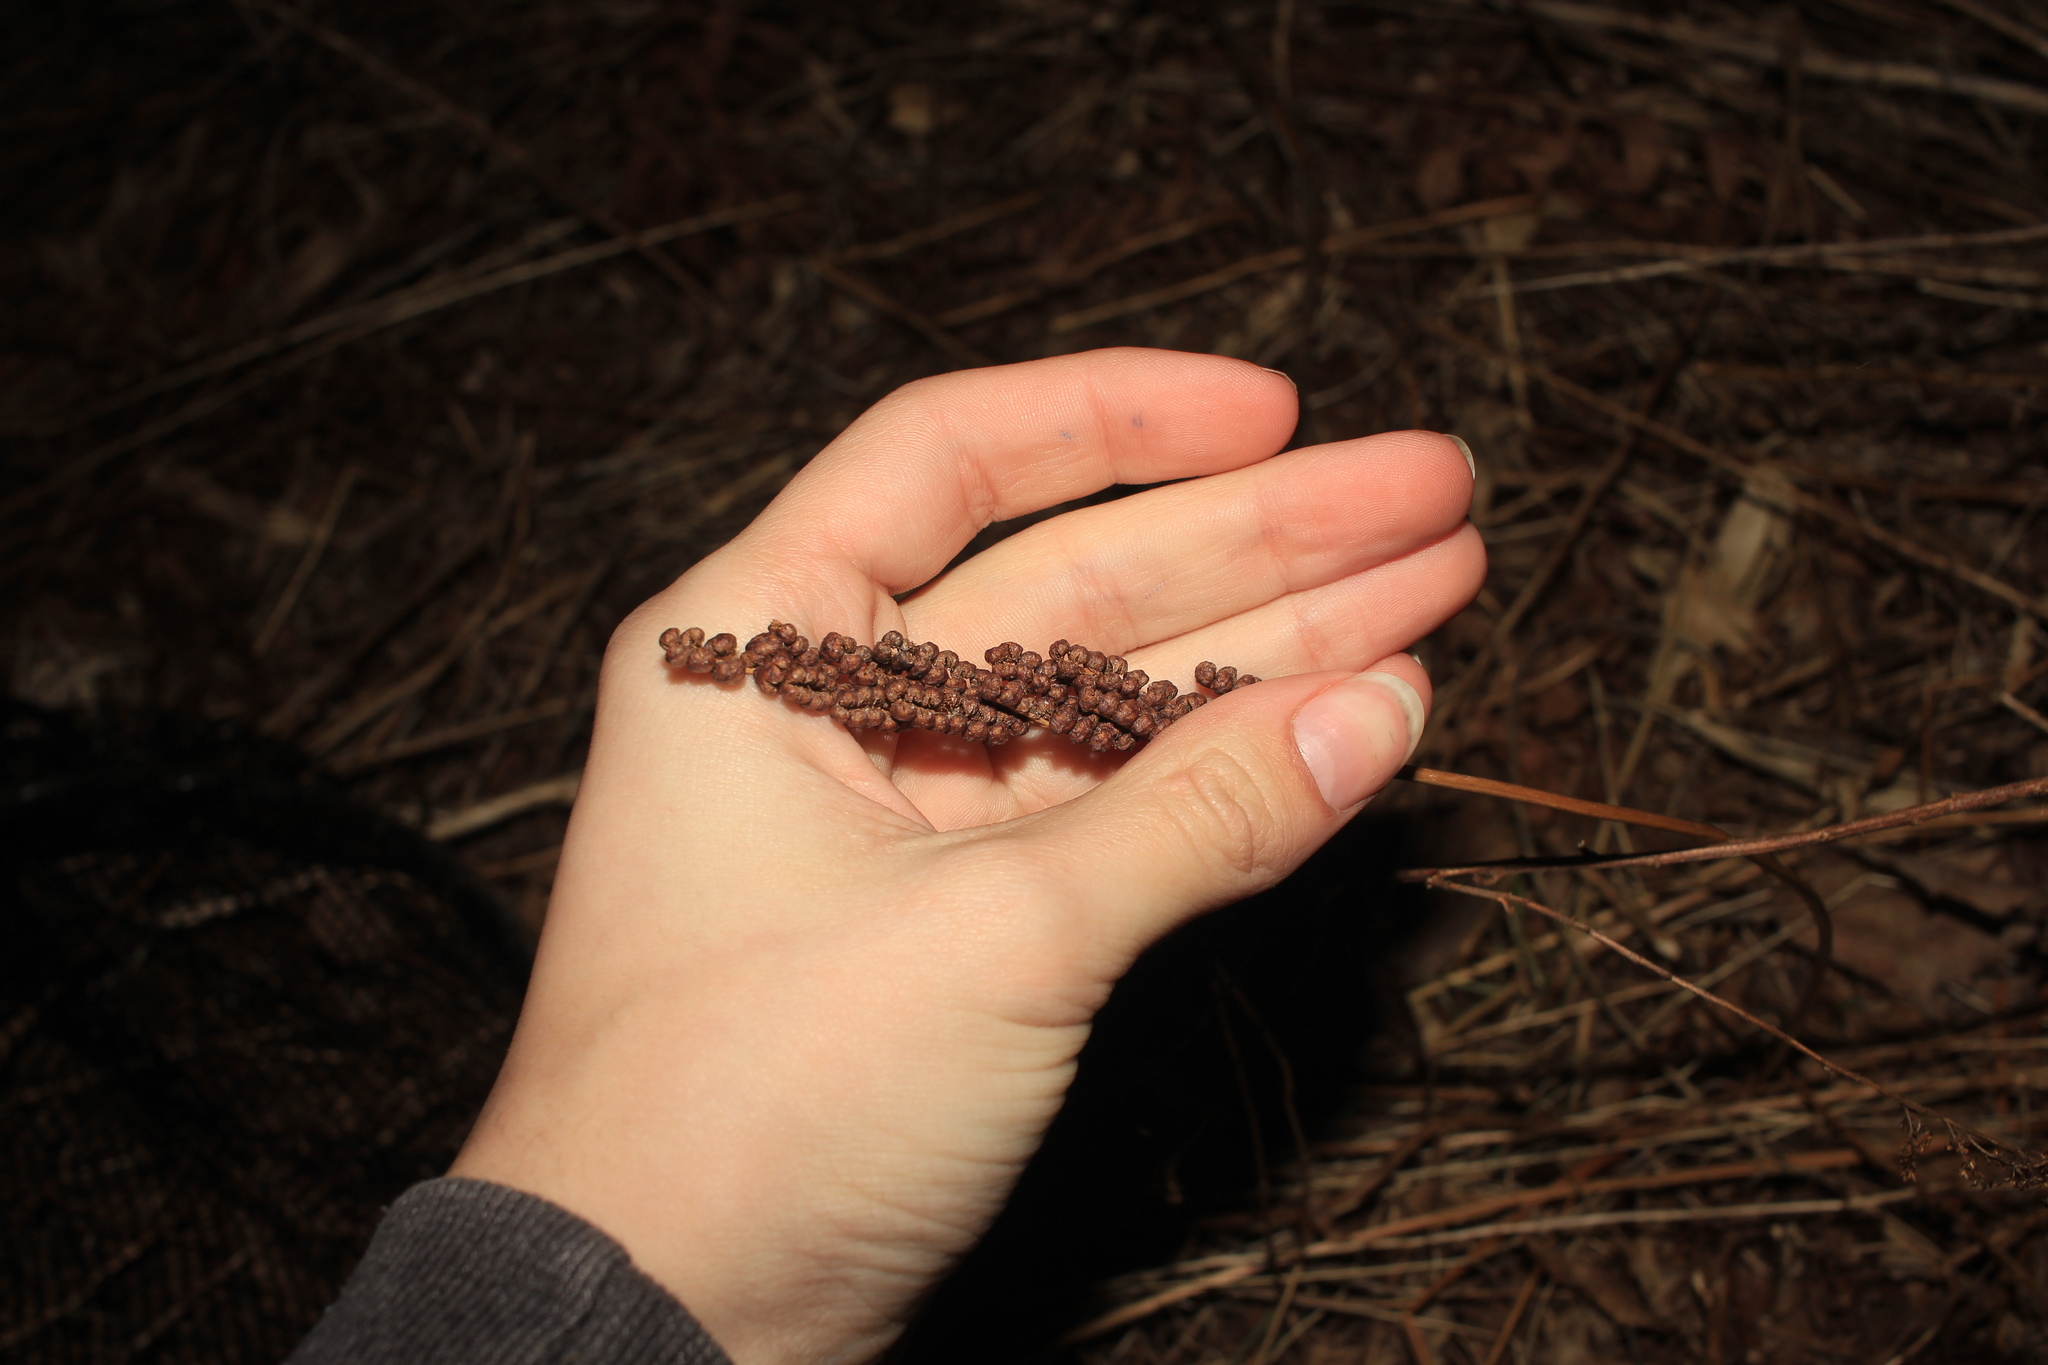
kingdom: Plantae
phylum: Tracheophyta
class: Polypodiopsida
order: Polypodiales
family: Onocleaceae
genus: Onoclea
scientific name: Onoclea sensibilis
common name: Sensitive fern
